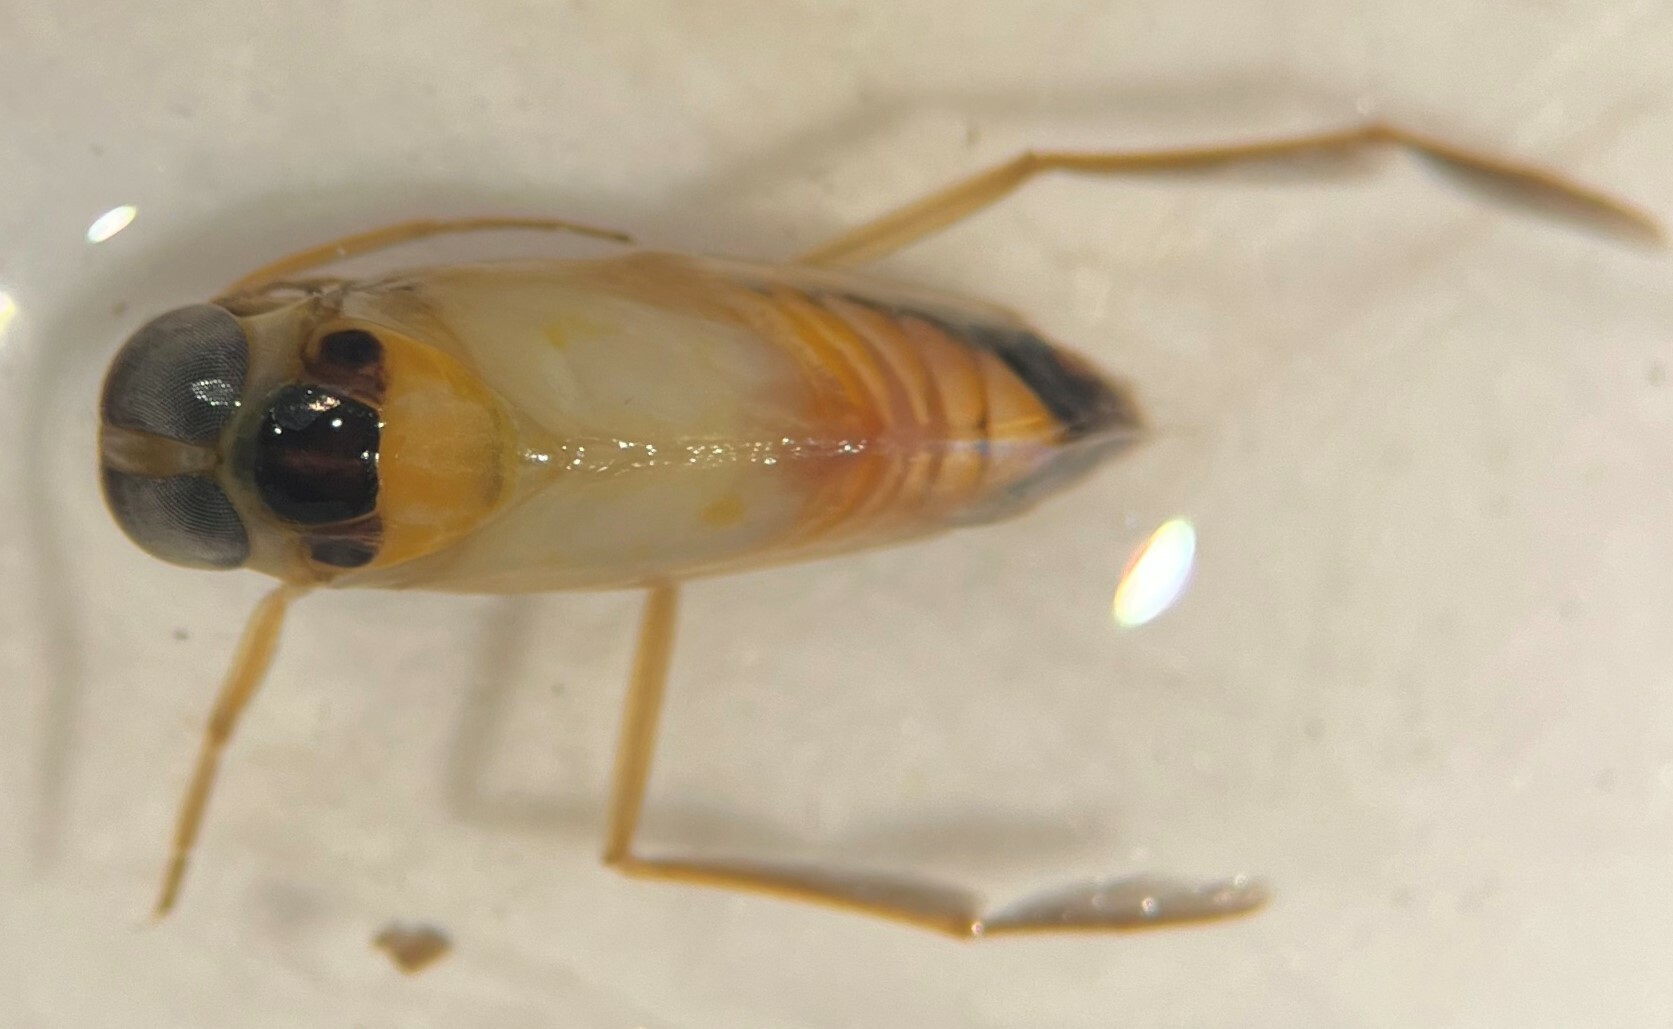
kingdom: Animalia
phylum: Arthropoda
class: Insecta
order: Hemiptera
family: Notonectidae
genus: Buenoa
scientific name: Buenoa margaritacea
